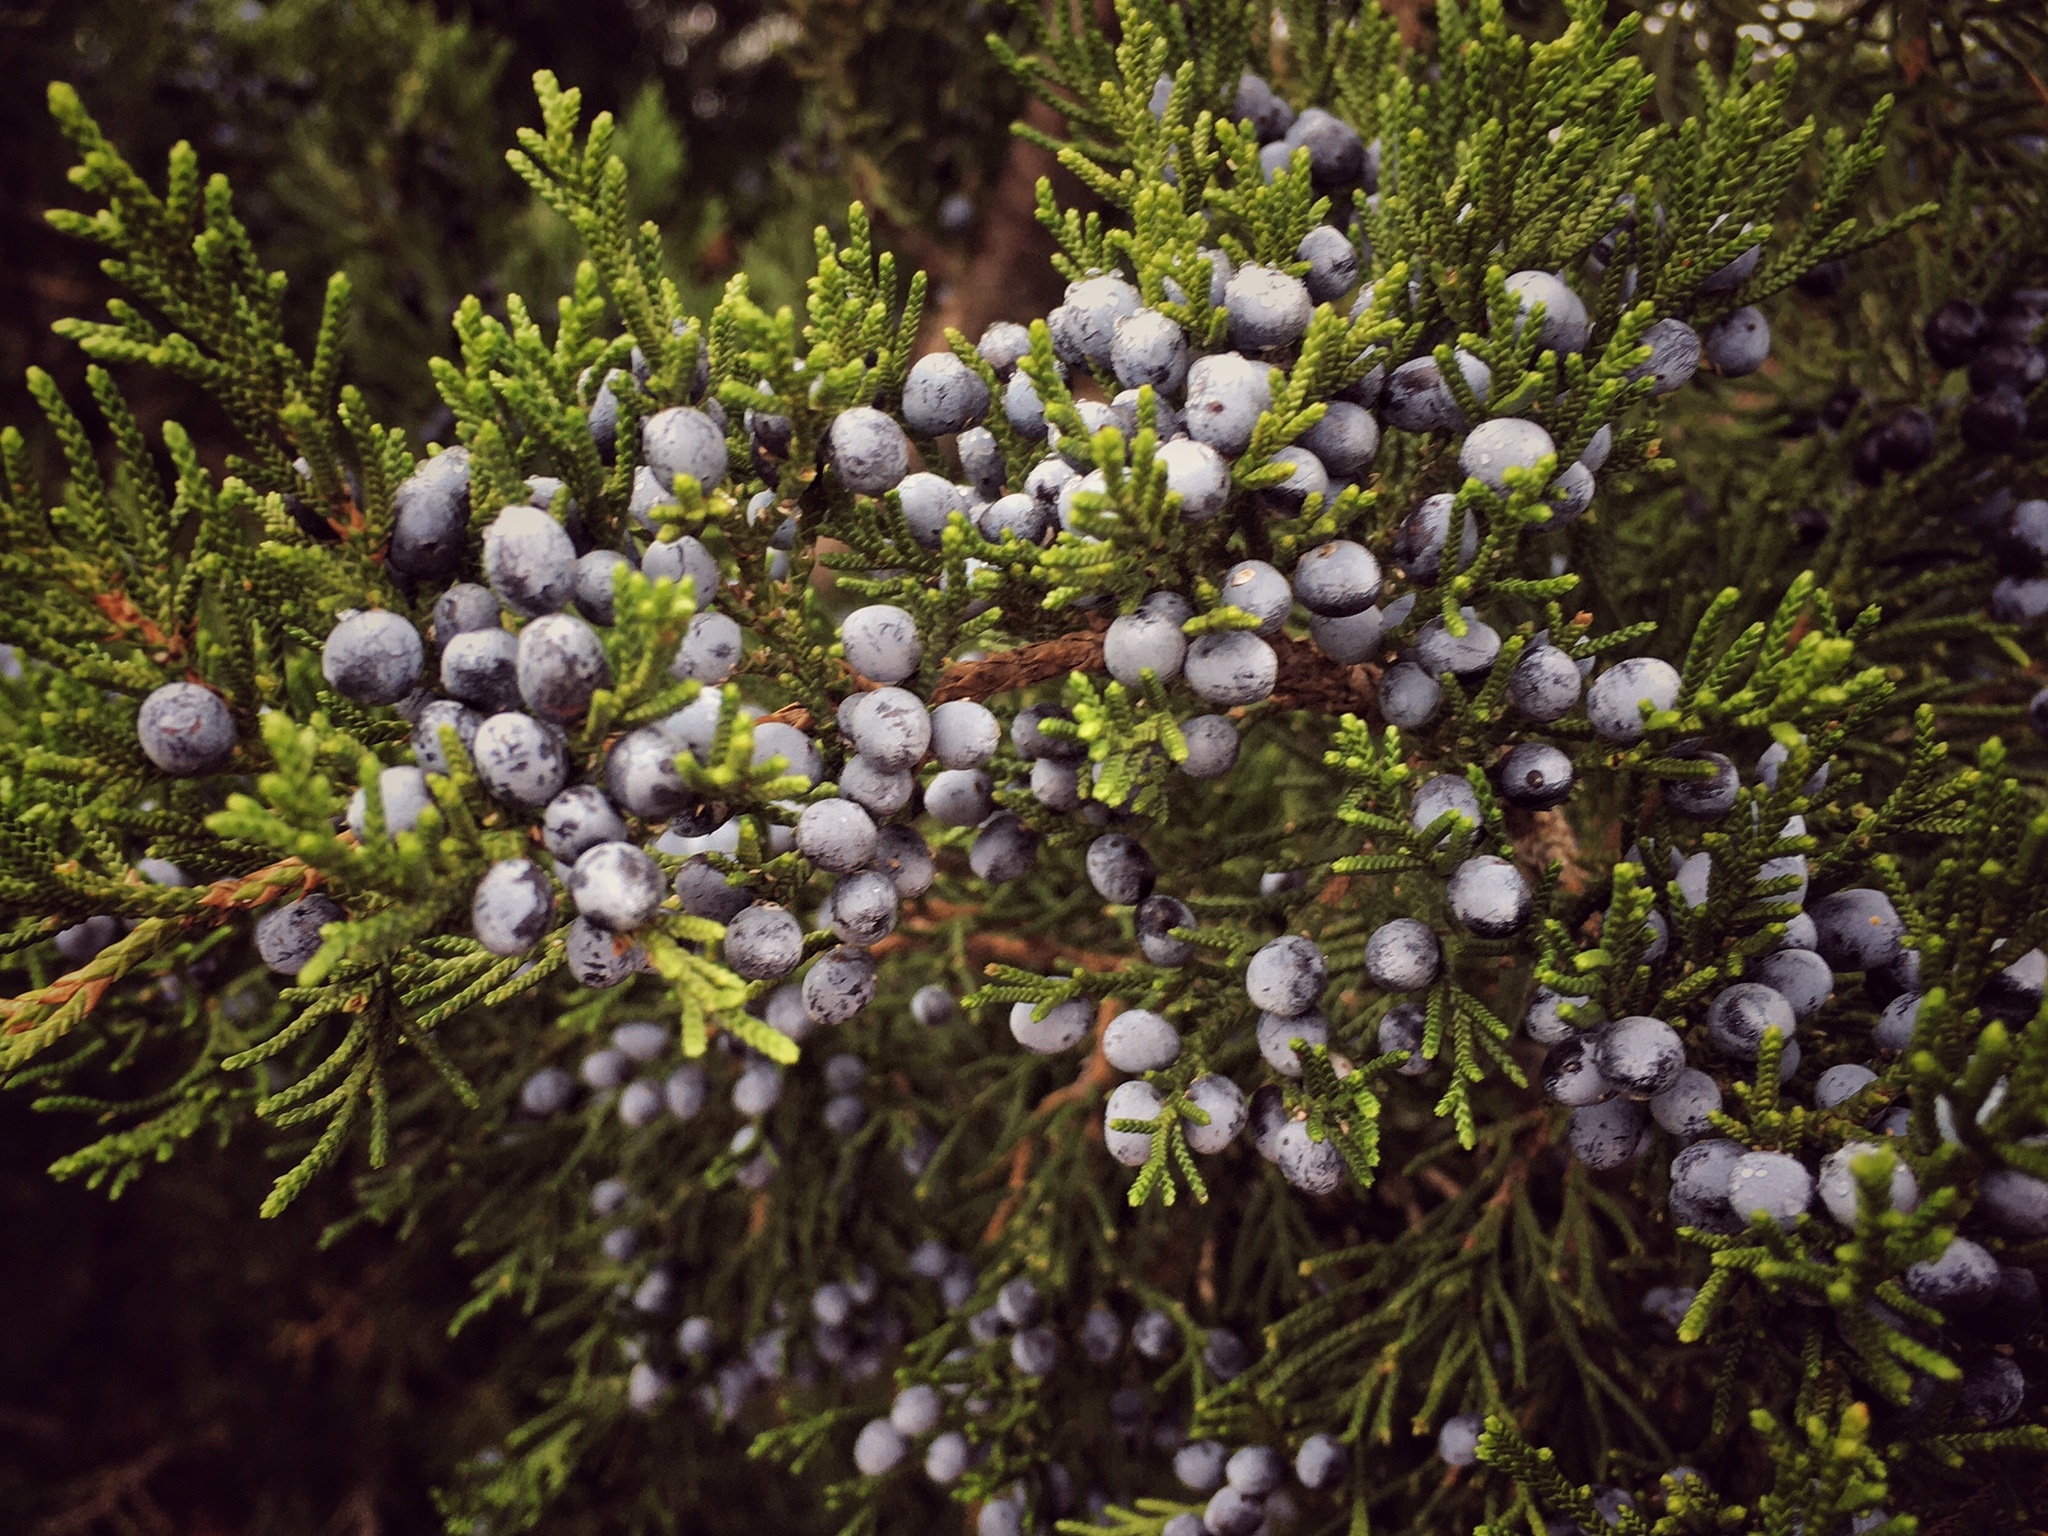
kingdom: Plantae
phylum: Tracheophyta
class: Pinopsida
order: Pinales
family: Cupressaceae
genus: Juniperus
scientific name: Juniperus virginiana
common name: Red juniper
